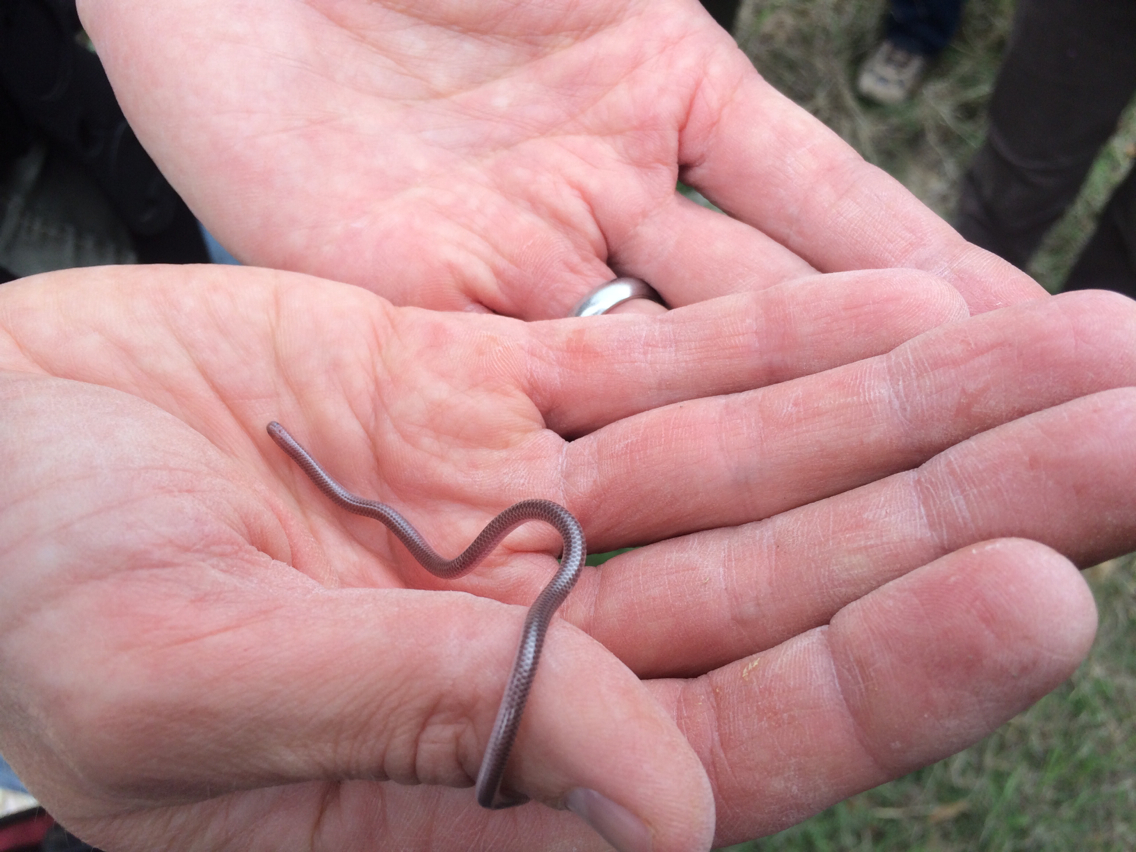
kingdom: Animalia
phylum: Chordata
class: Squamata
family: Leptotyphlopidae
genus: Rena
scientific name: Rena dulcis
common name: Texas blind snake
